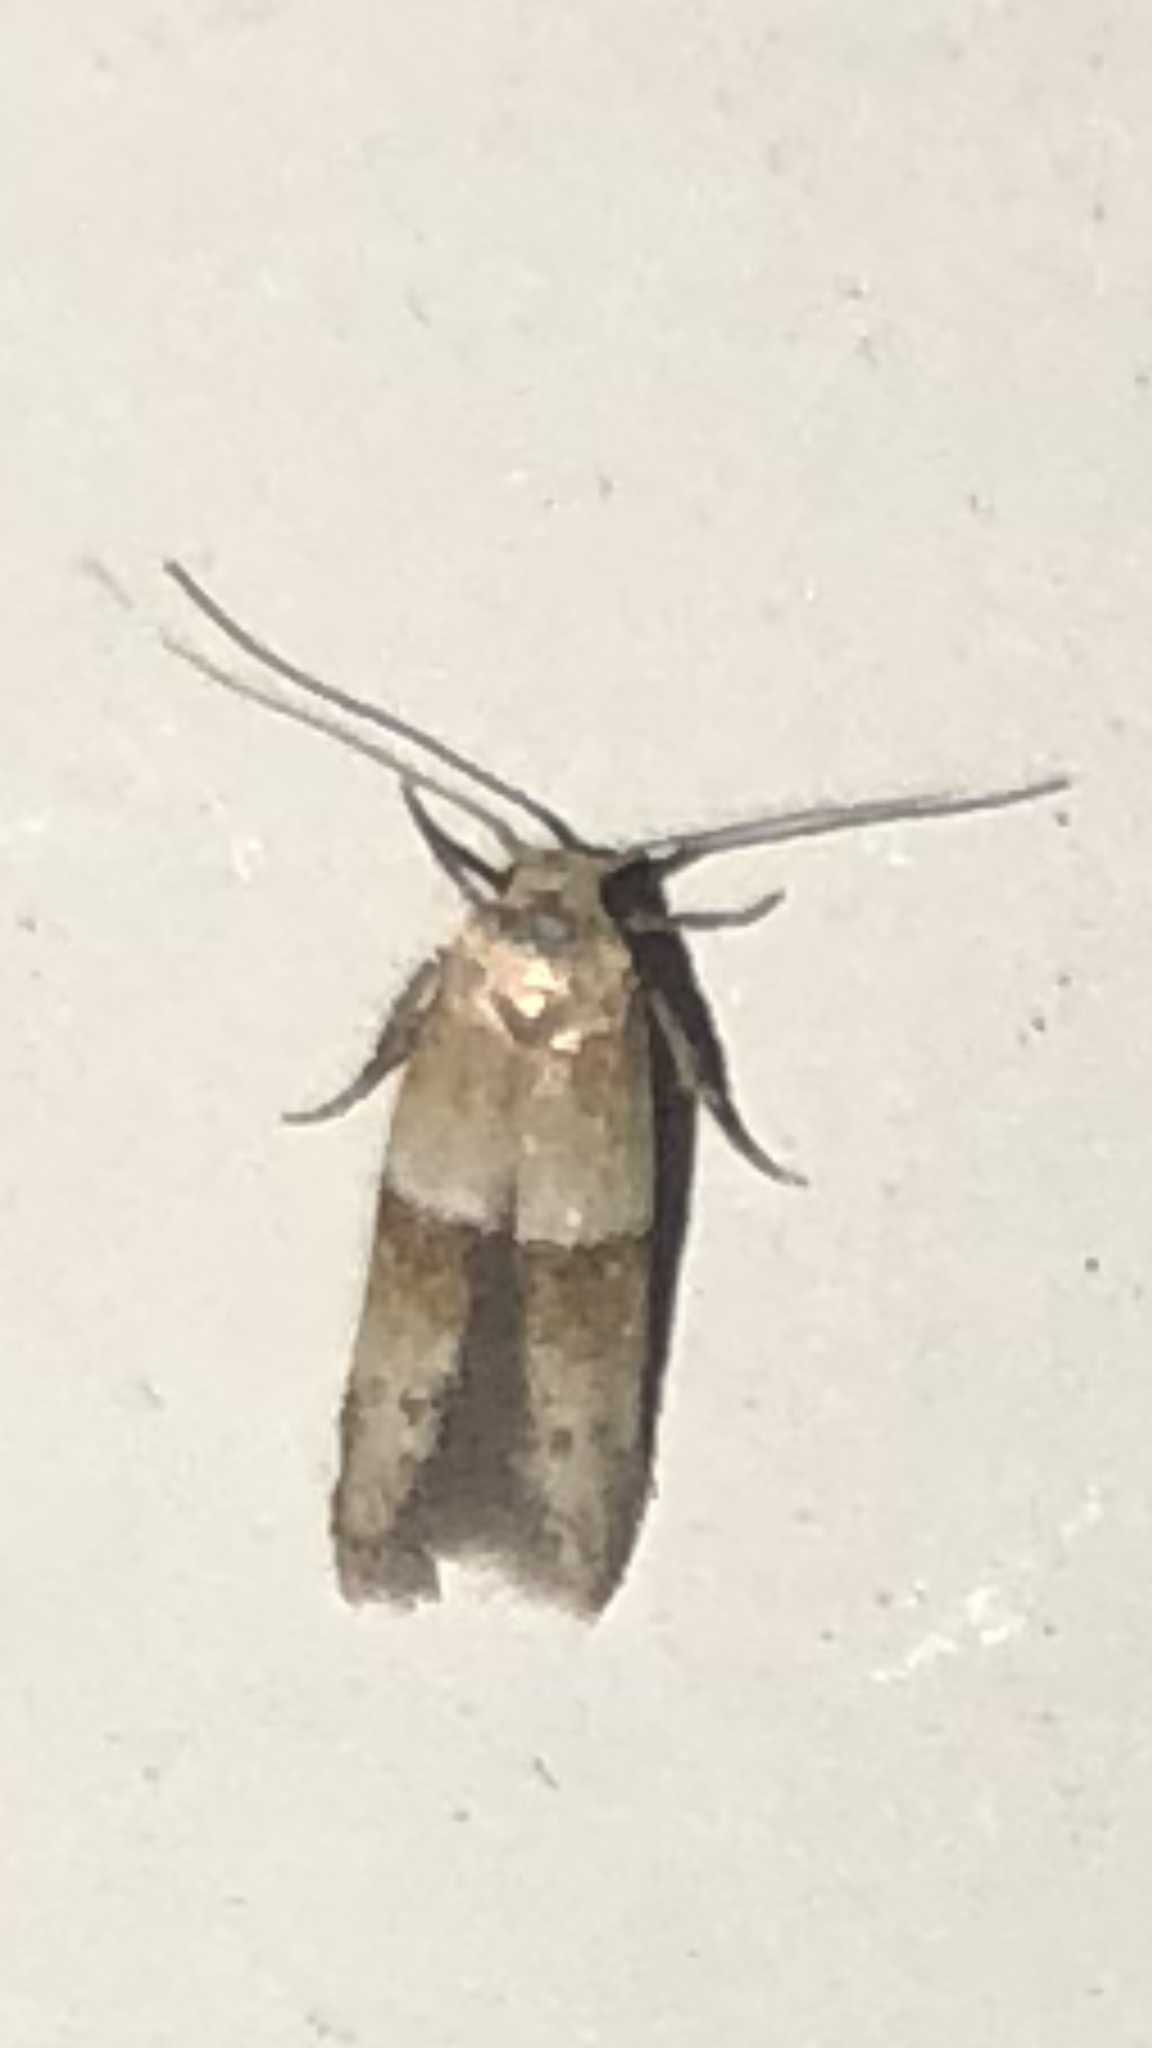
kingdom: Animalia
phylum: Arthropoda
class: Insecta
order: Lepidoptera
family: Blastobasidae
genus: Blastobasis
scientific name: Blastobasis pulchella
